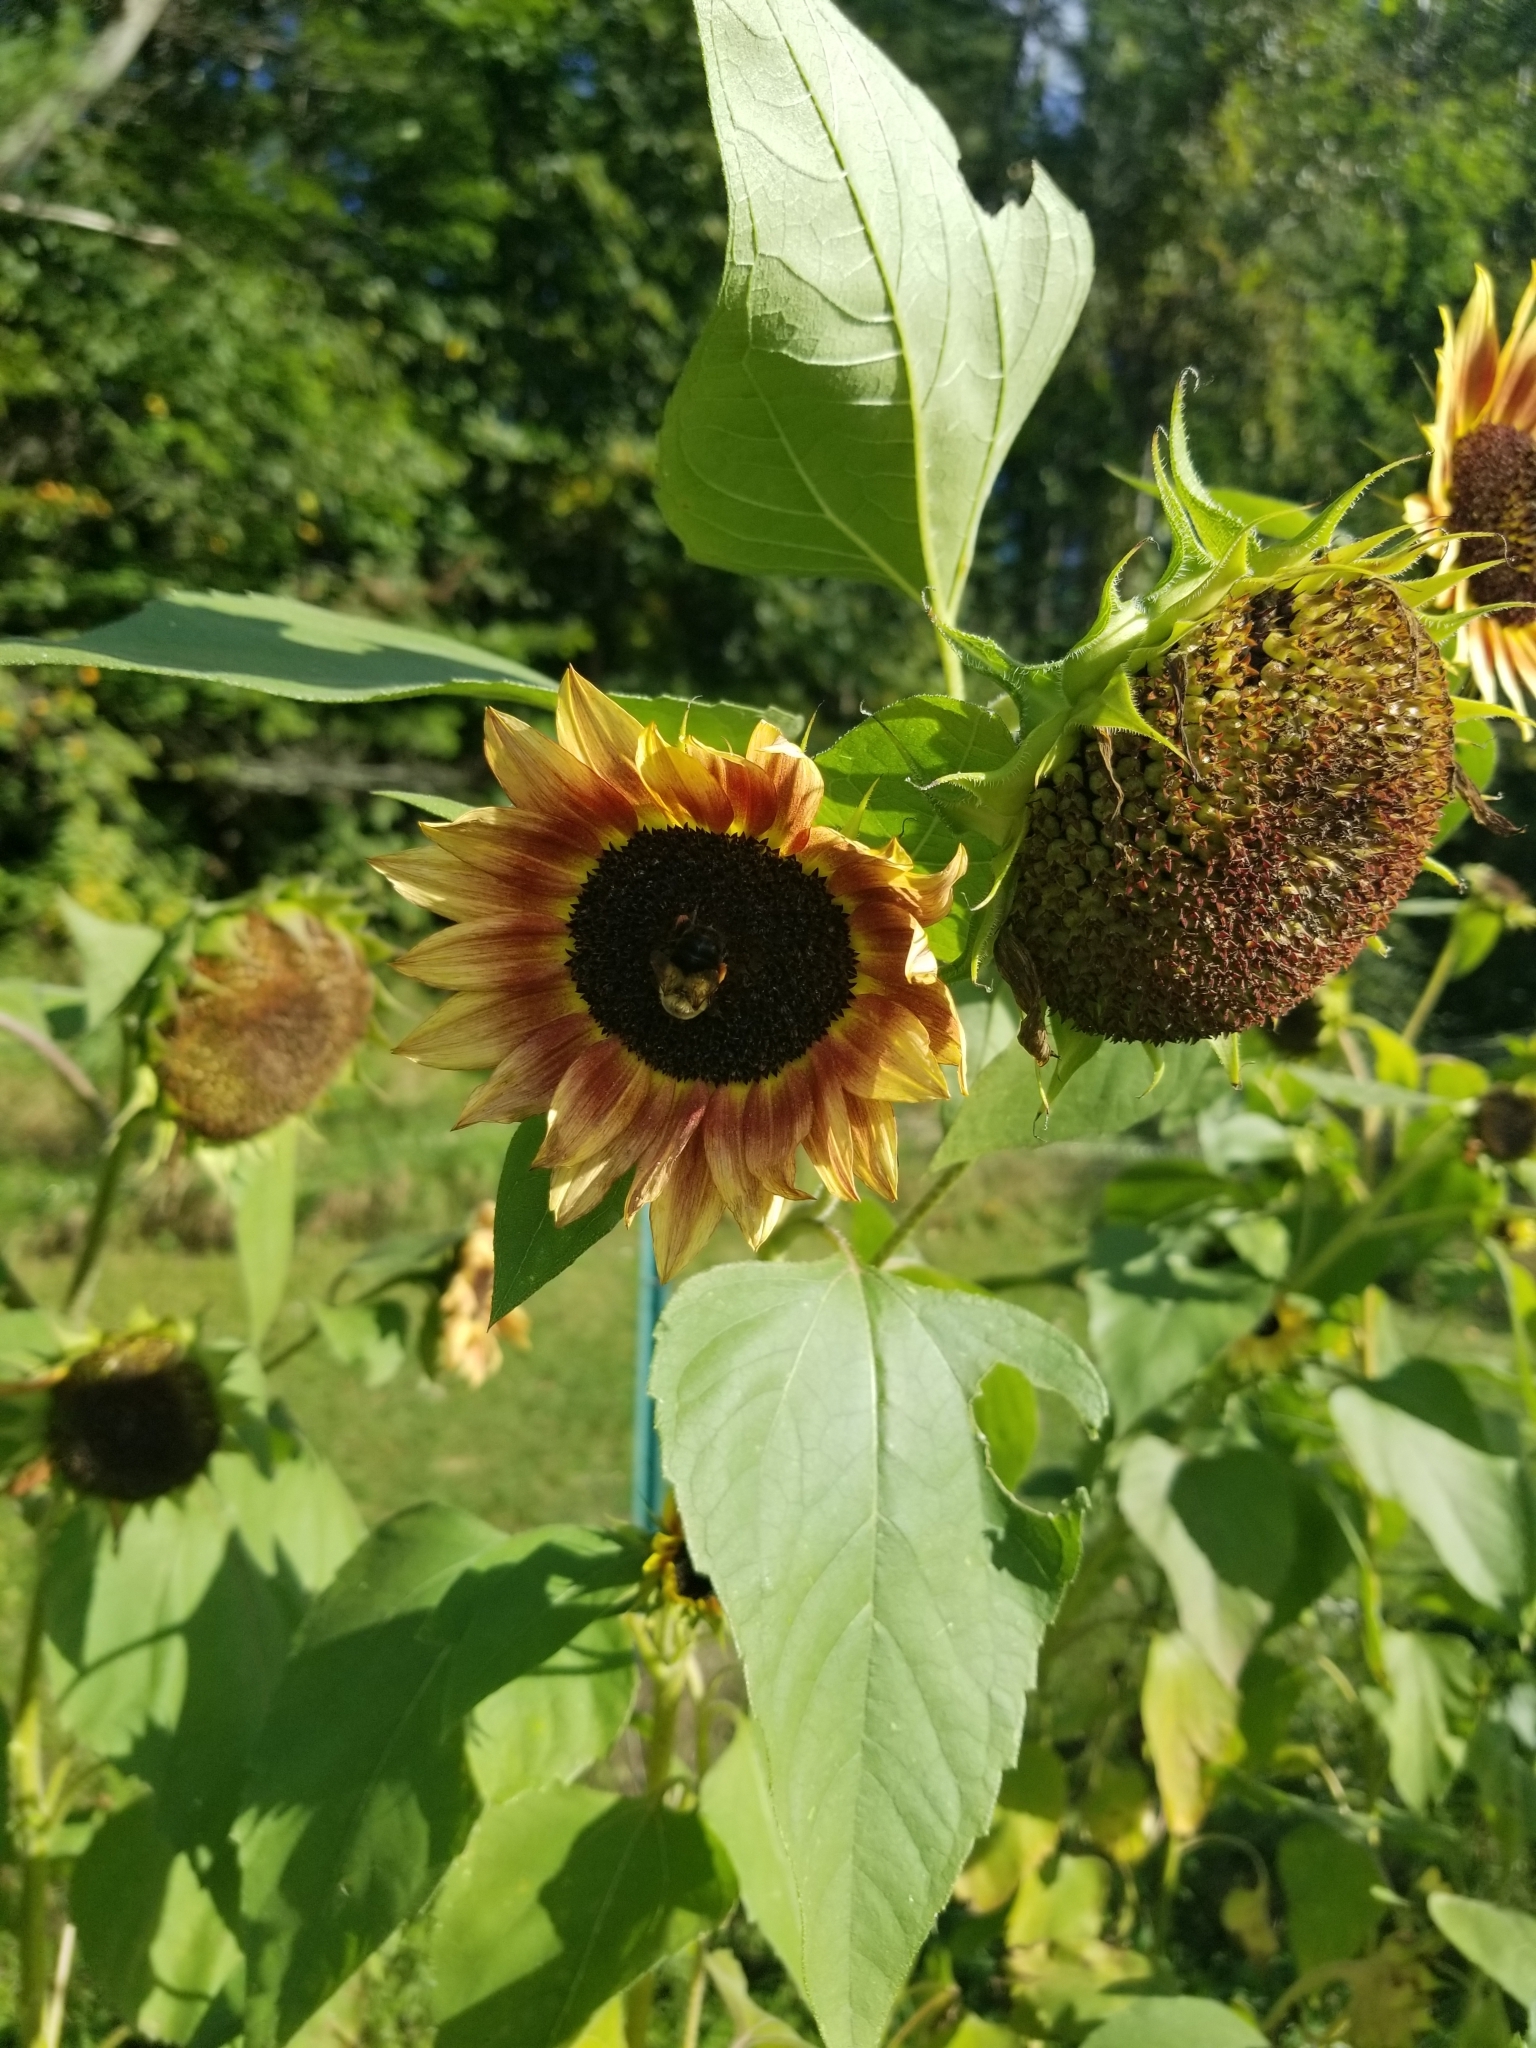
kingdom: Animalia
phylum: Arthropoda
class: Insecta
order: Hymenoptera
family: Apidae
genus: Bombus
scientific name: Bombus impatiens
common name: Common eastern bumble bee
